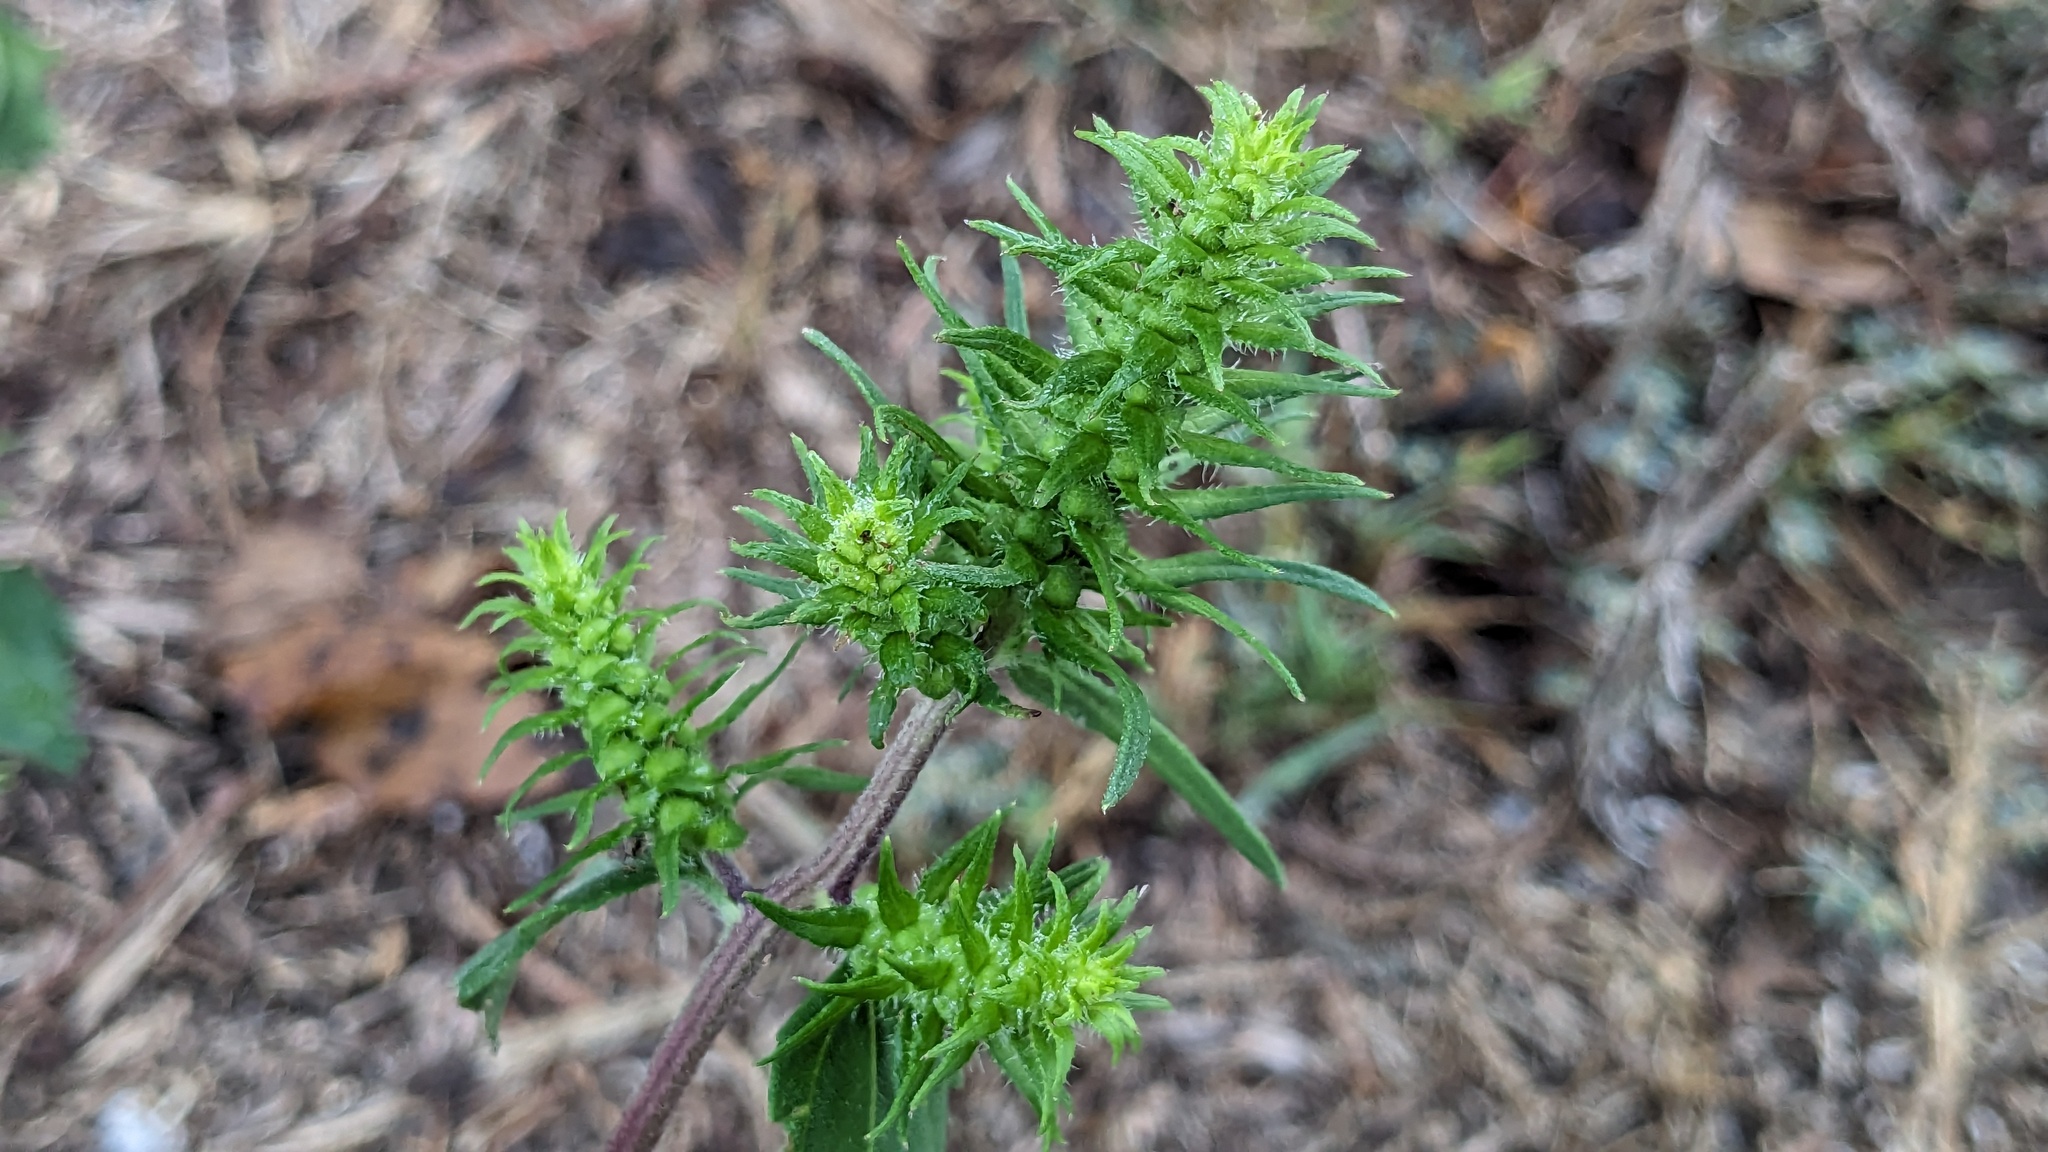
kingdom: Plantae
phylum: Tracheophyta
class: Magnoliopsida
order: Asterales
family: Asteraceae
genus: Iva
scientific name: Iva annua
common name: Marsh-elder
